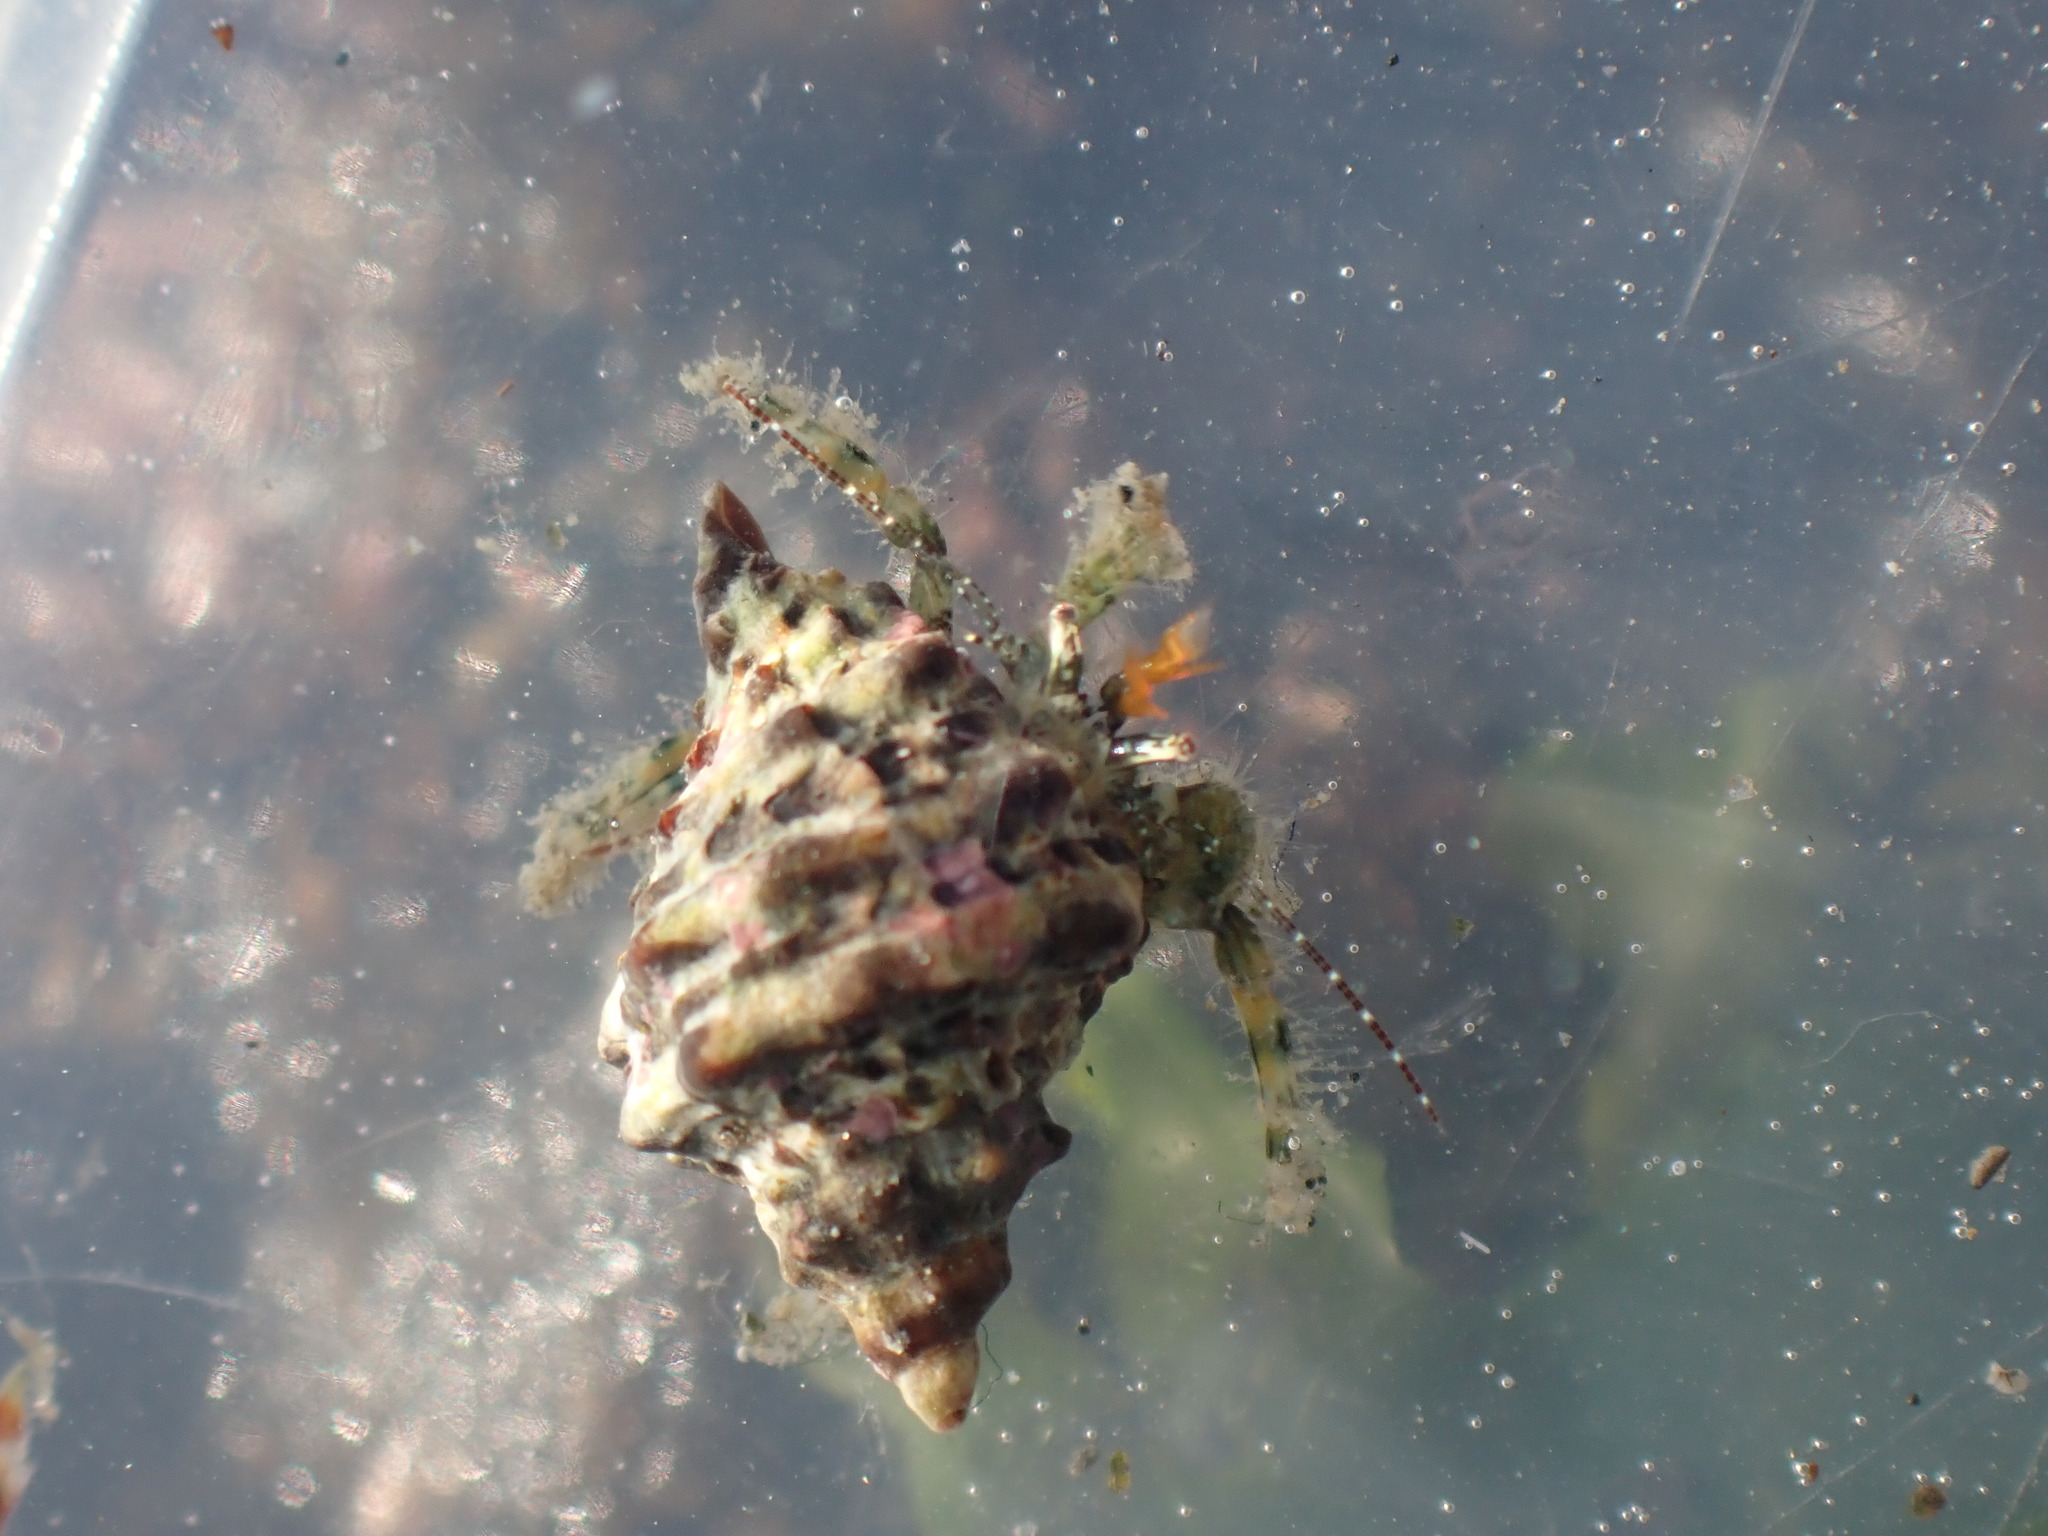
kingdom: Animalia
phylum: Arthropoda
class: Malacostraca
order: Decapoda
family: Paguridae
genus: Pagurus
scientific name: Pagurus traversi
